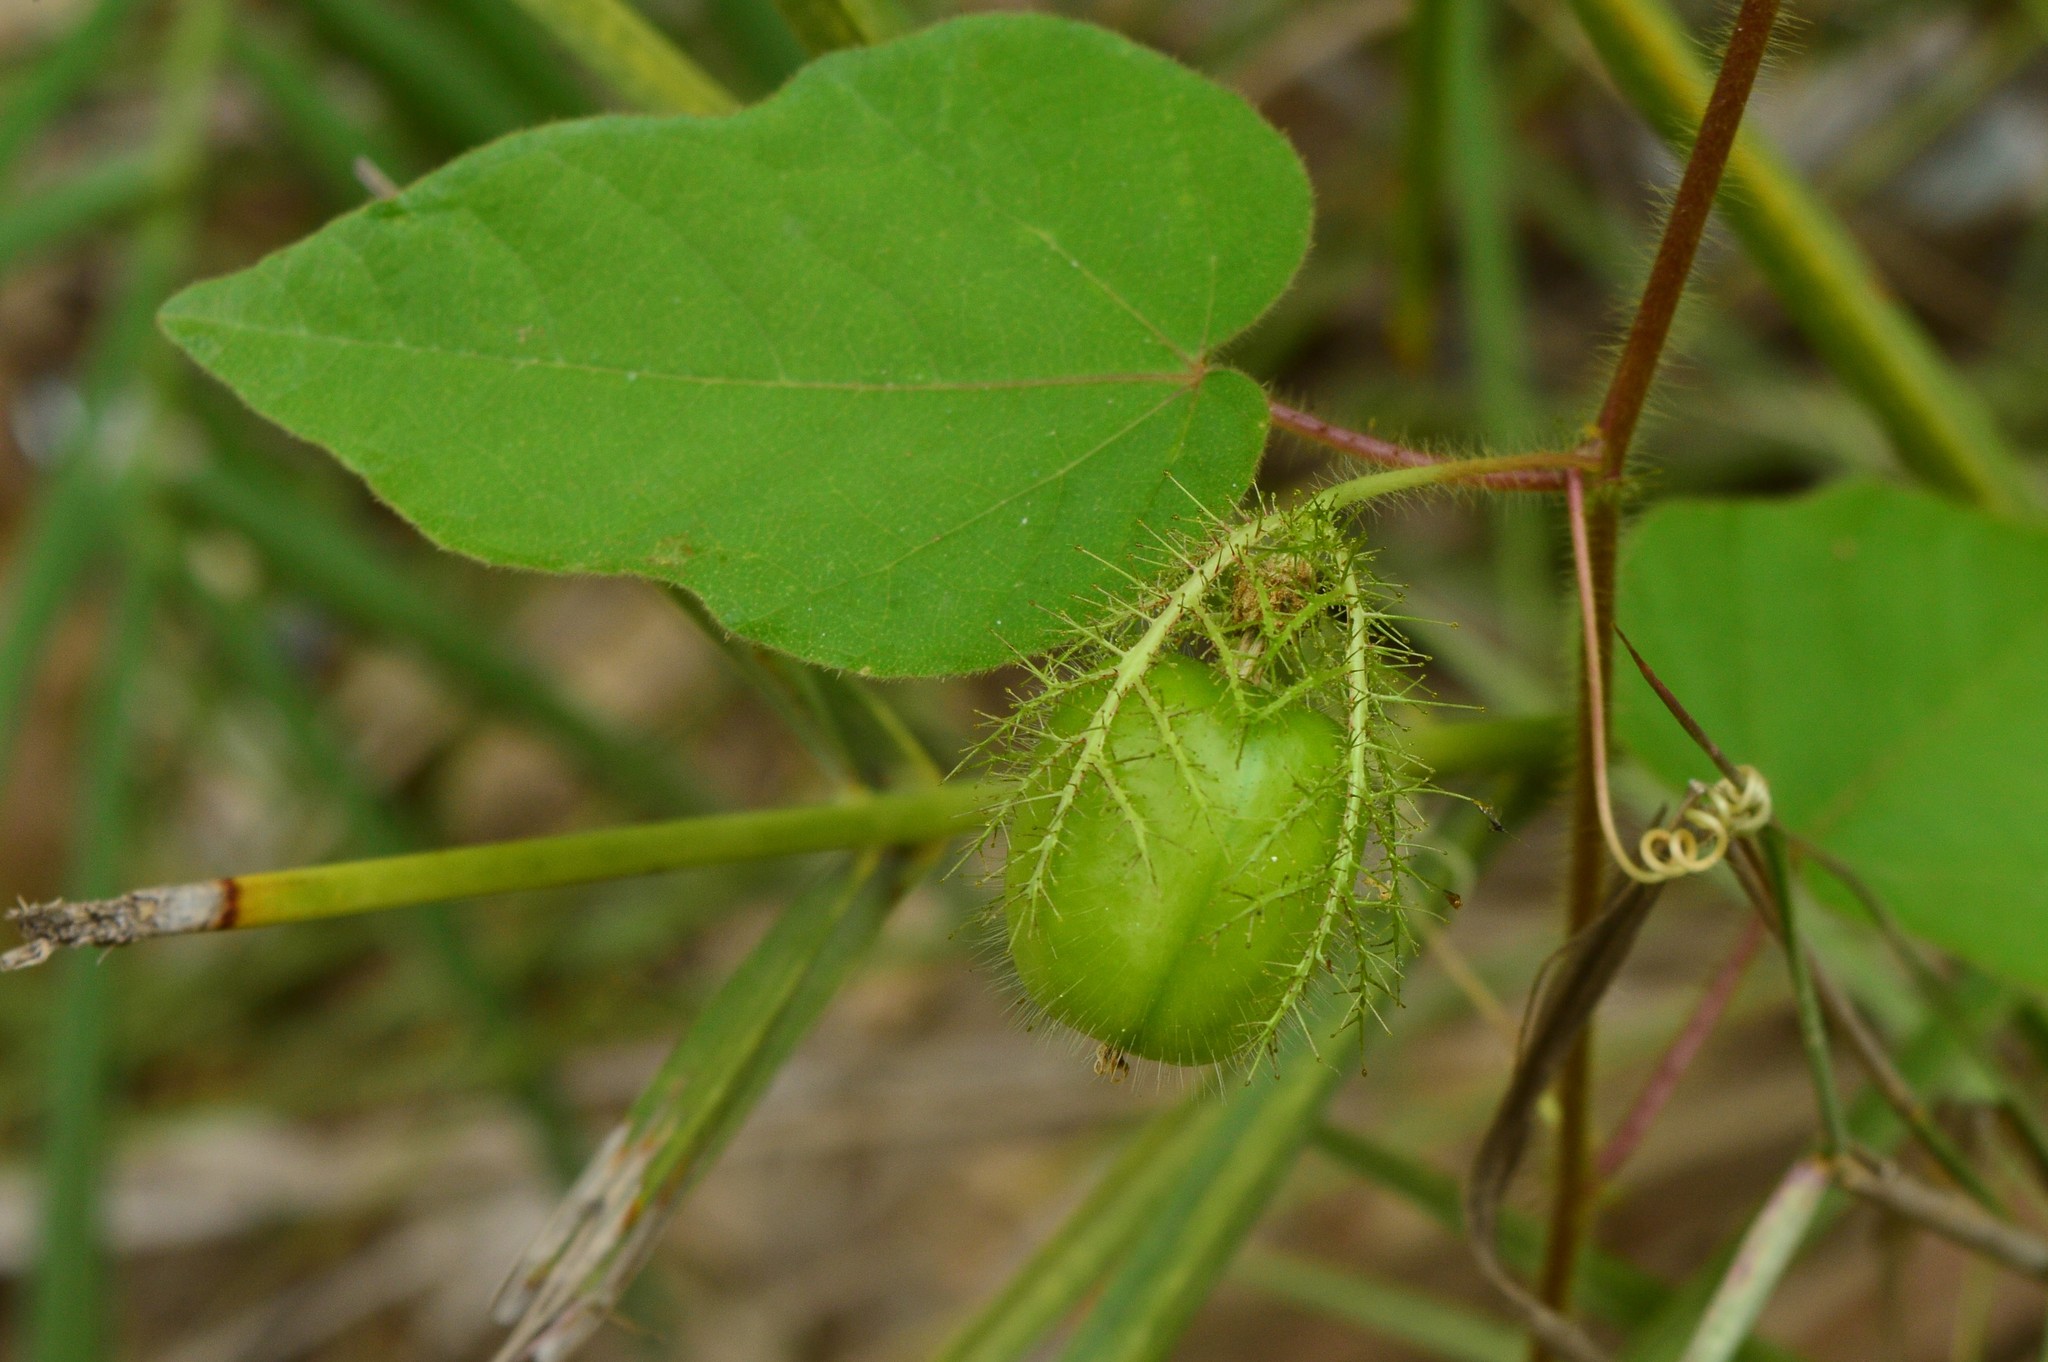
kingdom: Plantae
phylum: Tracheophyta
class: Magnoliopsida
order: Malpighiales
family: Passifloraceae
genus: Passiflora
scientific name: Passiflora foetida
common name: Fetid passionflower
